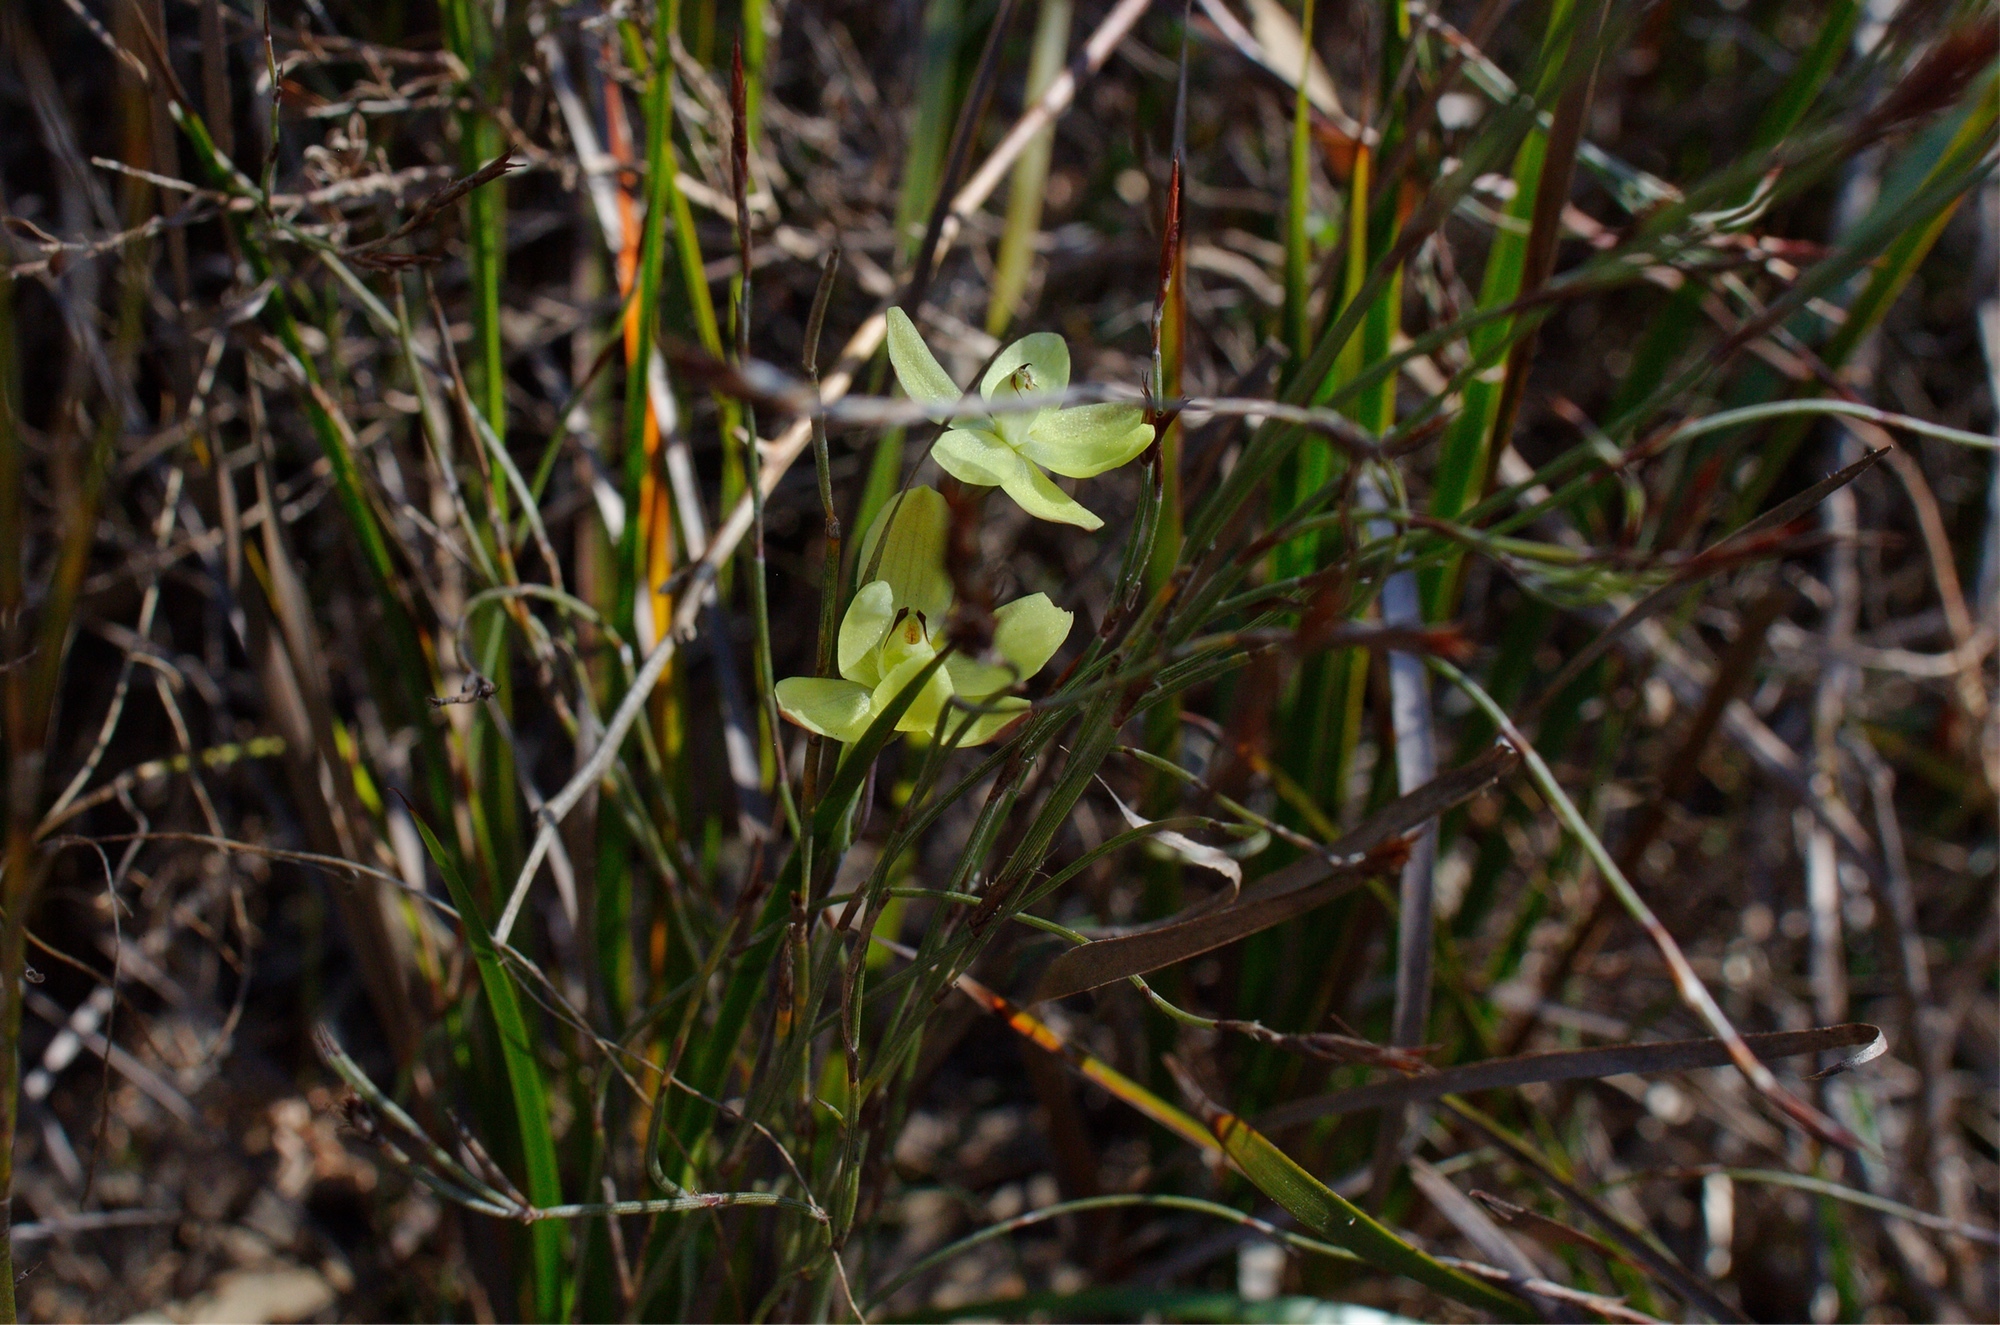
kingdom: Plantae
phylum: Tracheophyta
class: Liliopsida
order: Asparagales
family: Orchidaceae
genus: Thelymitra
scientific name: Thelymitra antennifera
